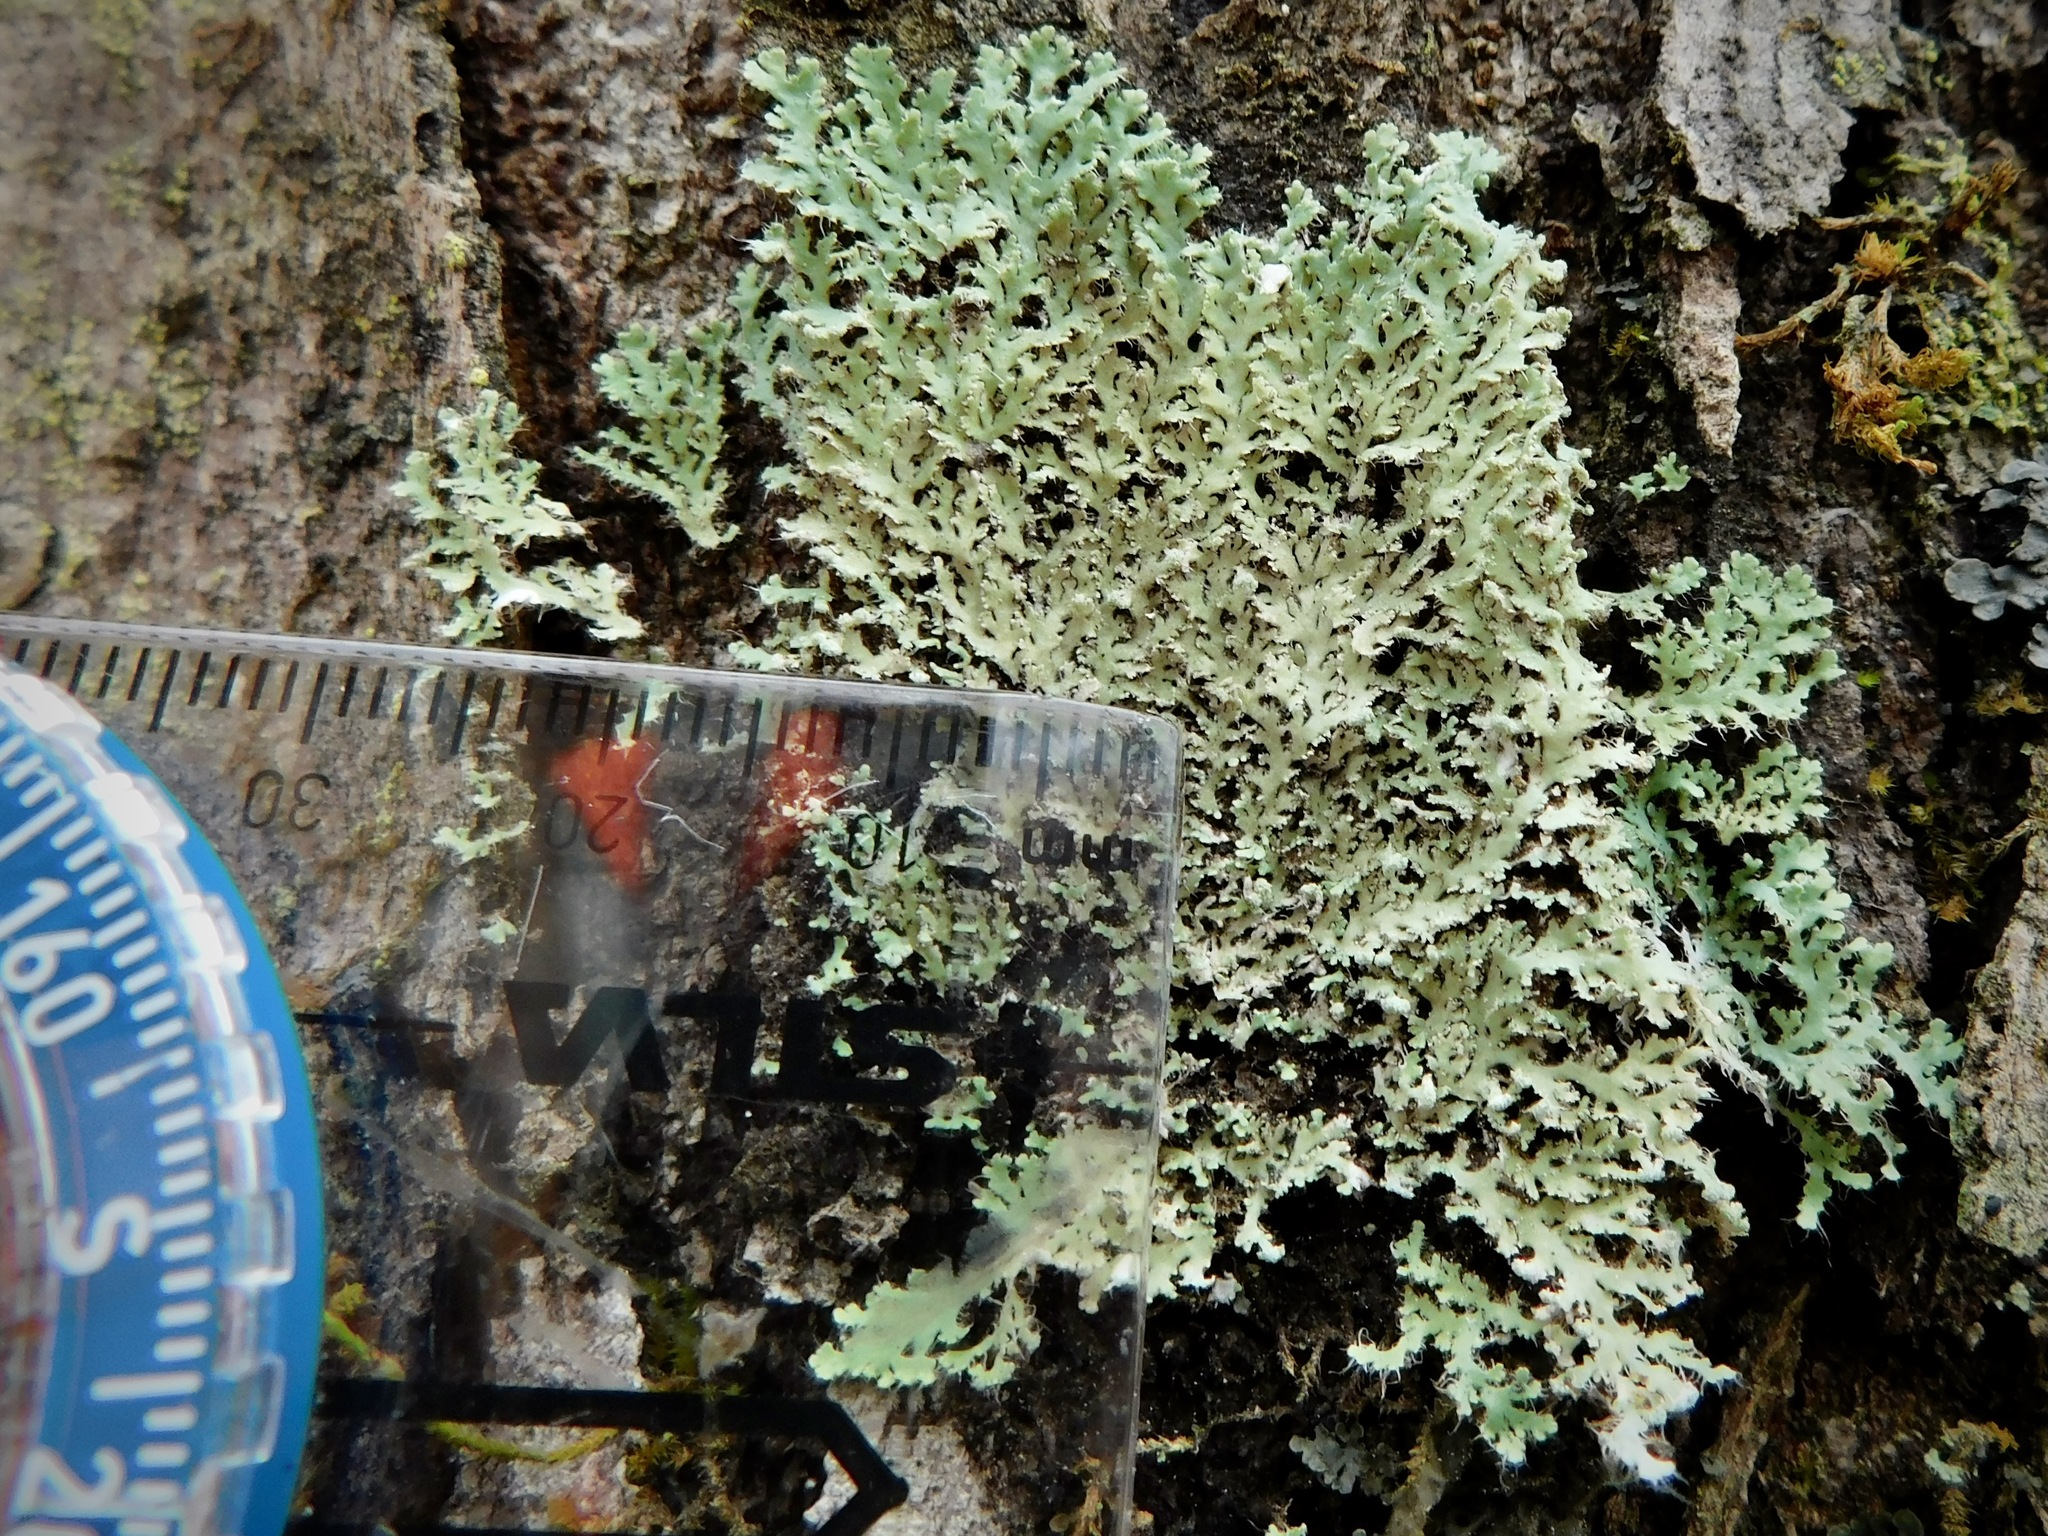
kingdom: Fungi
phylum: Ascomycota
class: Lecanoromycetes
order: Caliciales
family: Physciaceae
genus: Heterodermia
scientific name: Heterodermia speciosa
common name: Powdered fringe lichen
